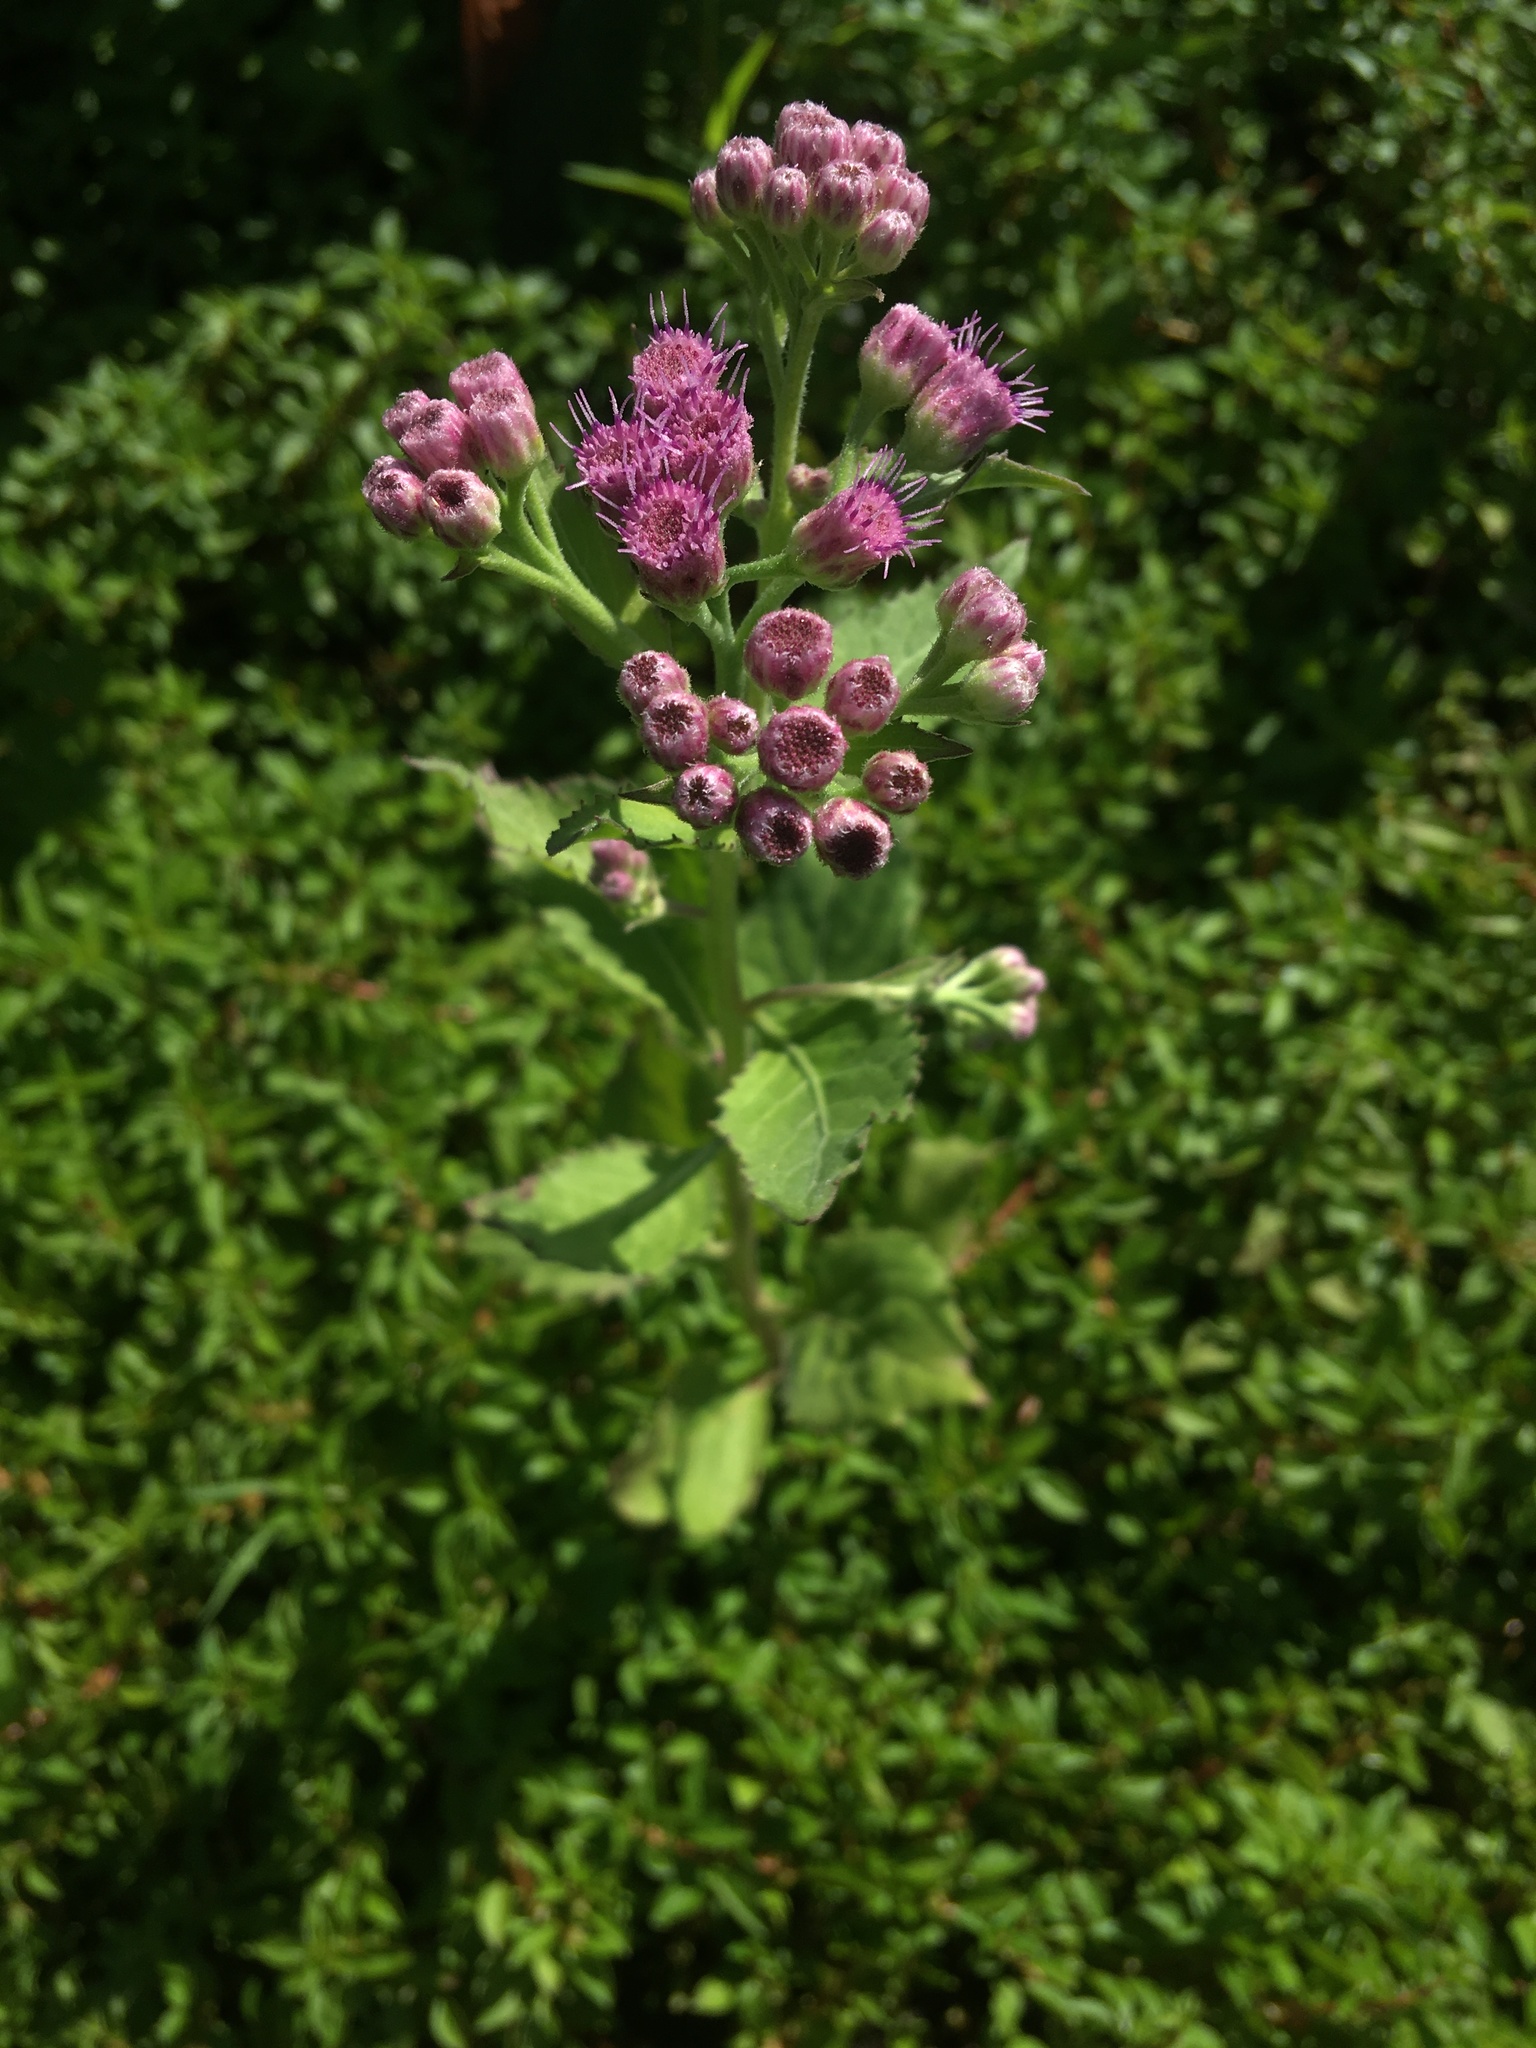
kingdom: Plantae
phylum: Tracheophyta
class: Magnoliopsida
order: Asterales
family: Asteraceae
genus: Pluchea
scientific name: Pluchea odorata
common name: Saltmarsh fleabane
